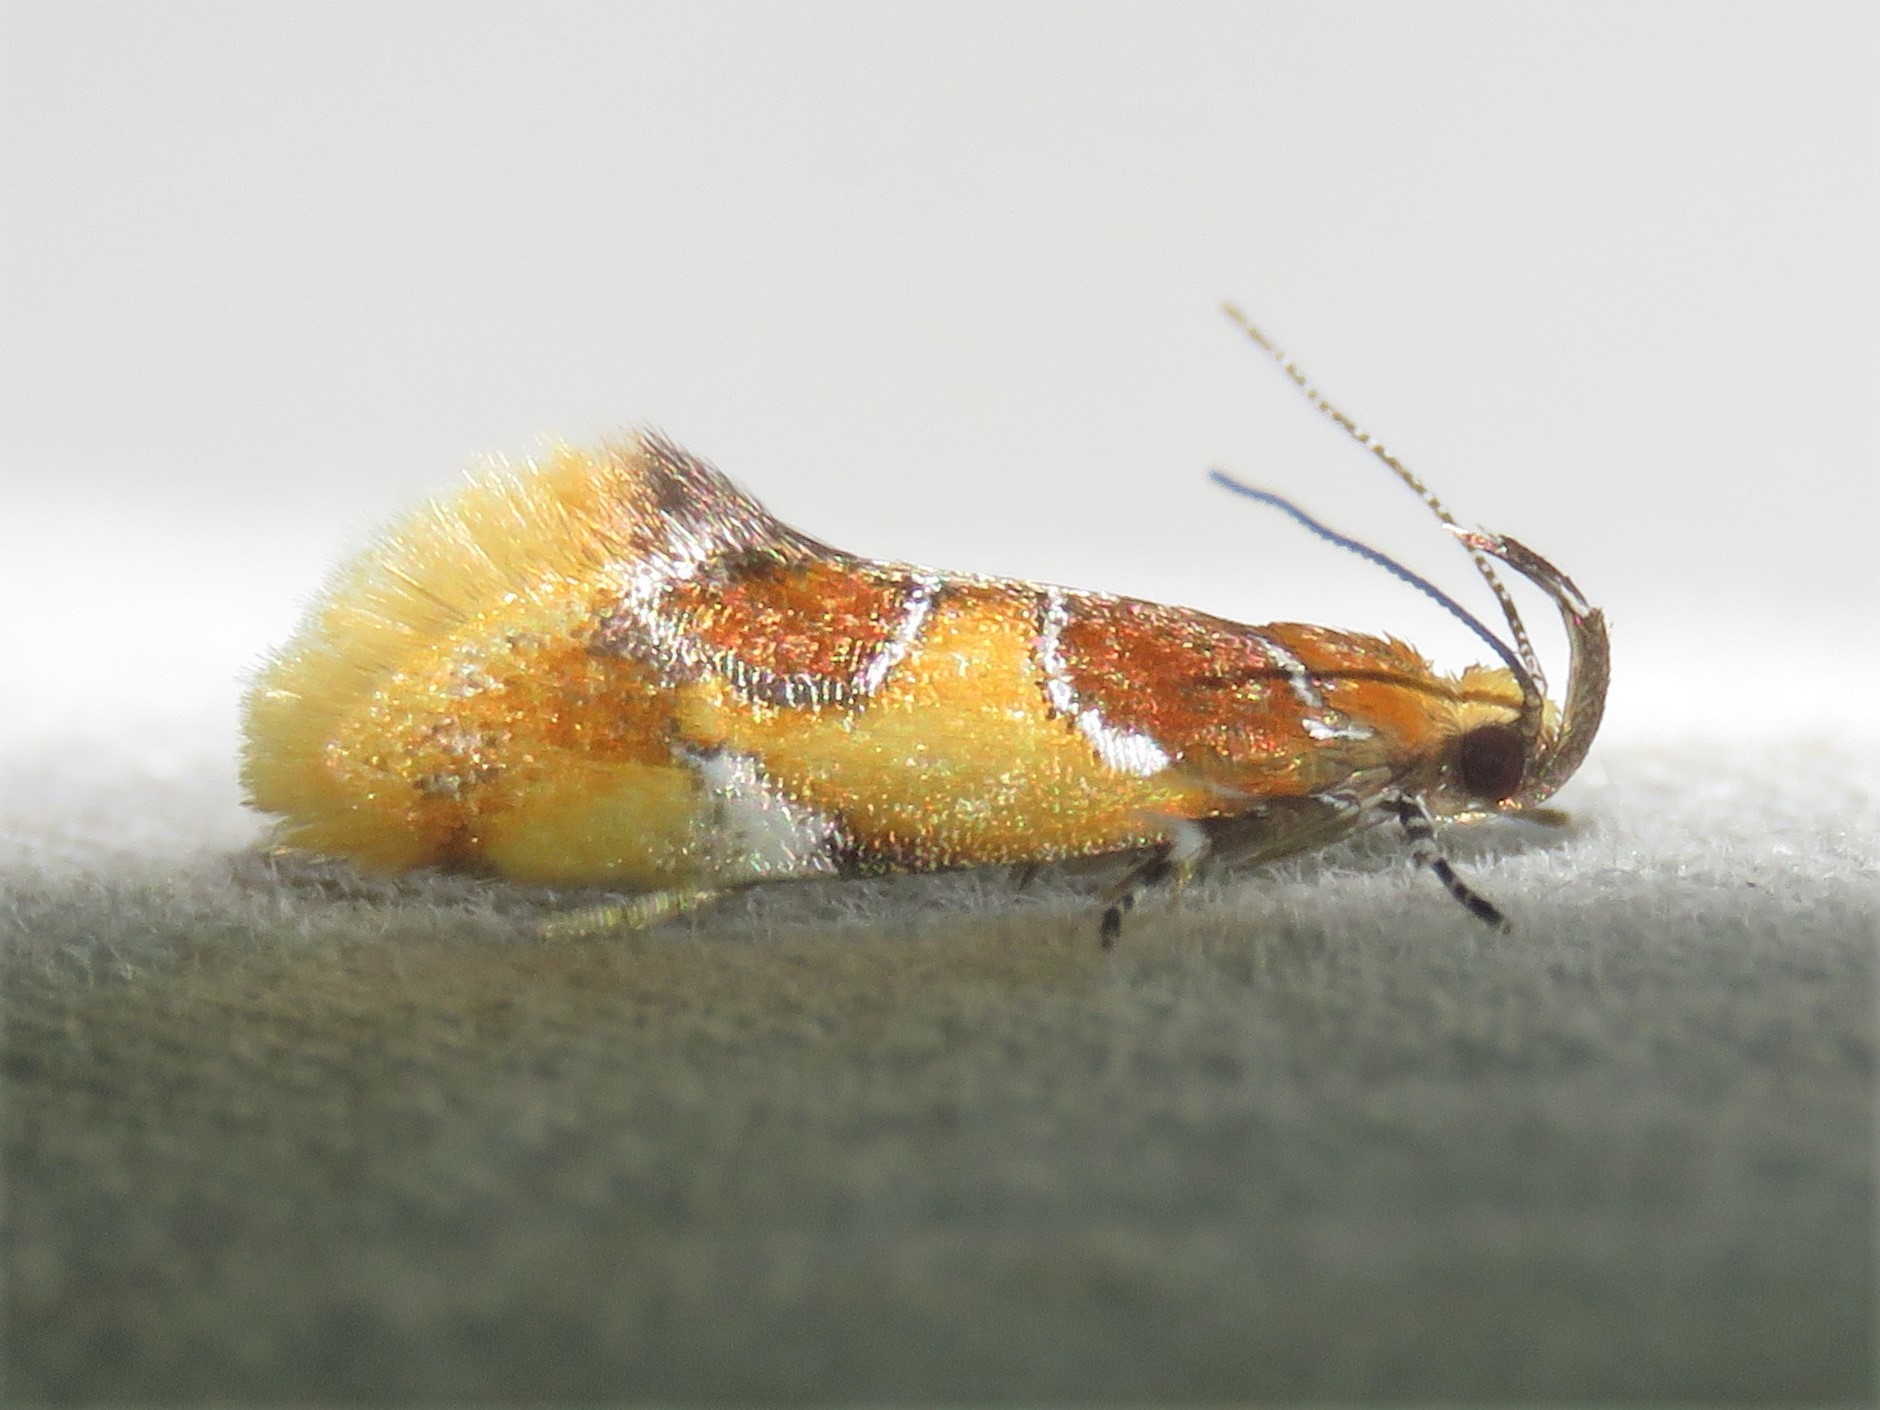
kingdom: Animalia
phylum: Arthropoda
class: Insecta
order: Lepidoptera
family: Oecophoridae
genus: Callima
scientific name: Callima argenticinctella
